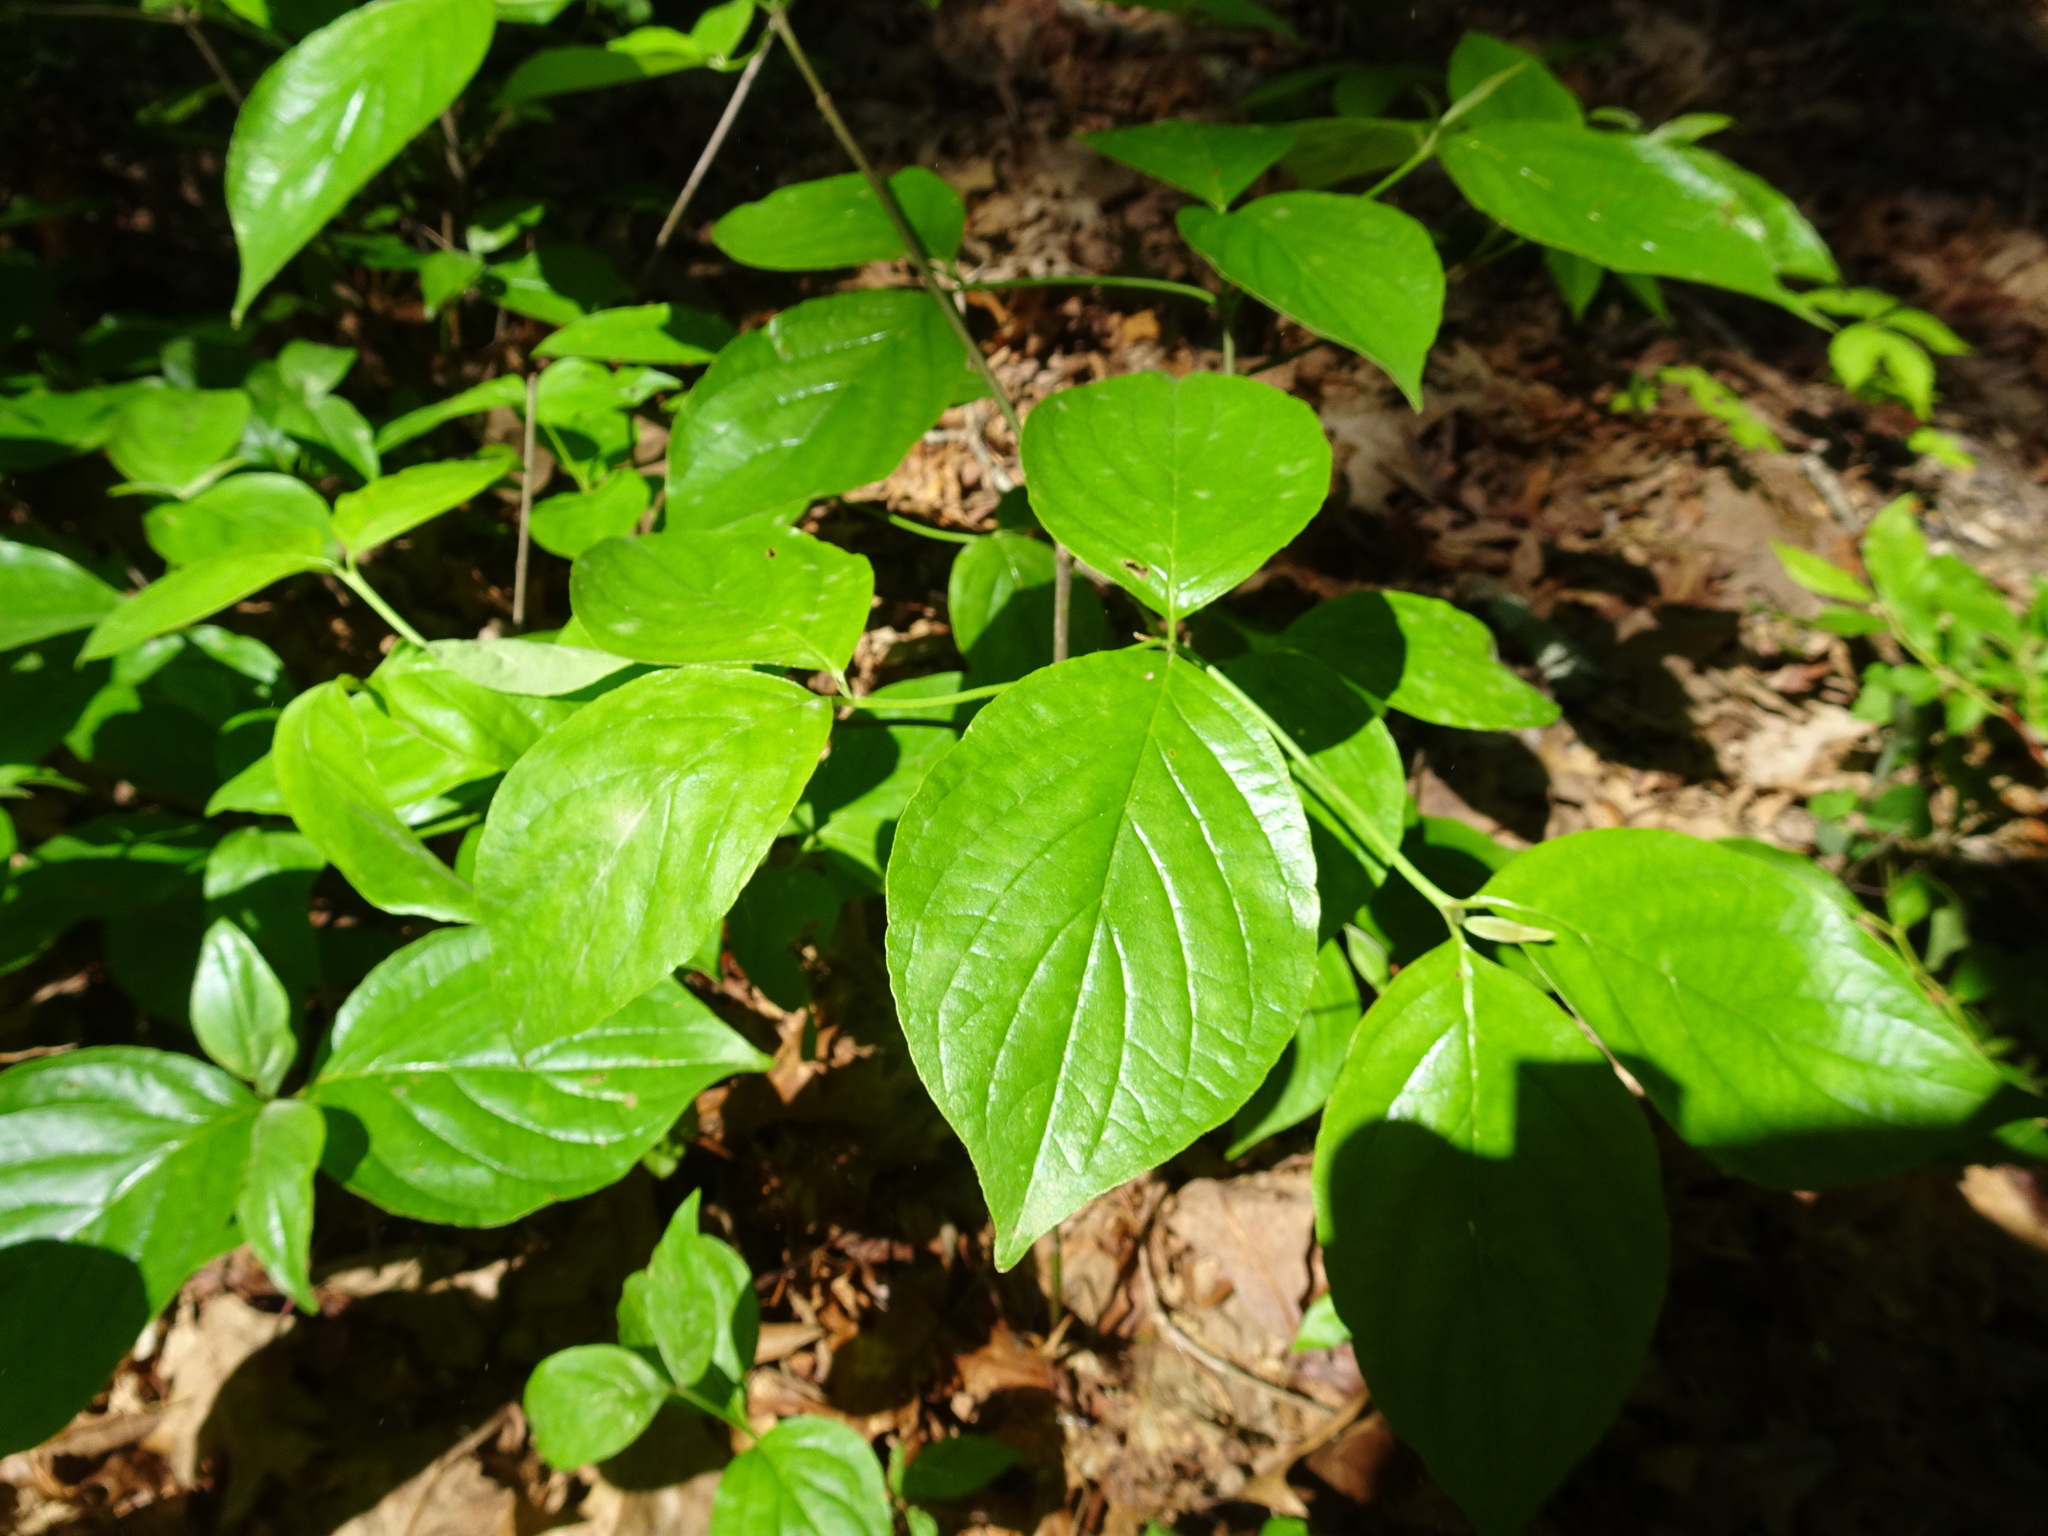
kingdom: Plantae
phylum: Tracheophyta
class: Magnoliopsida
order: Cornales
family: Cornaceae
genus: Cornus
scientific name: Cornus florida
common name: Flowering dogwood
